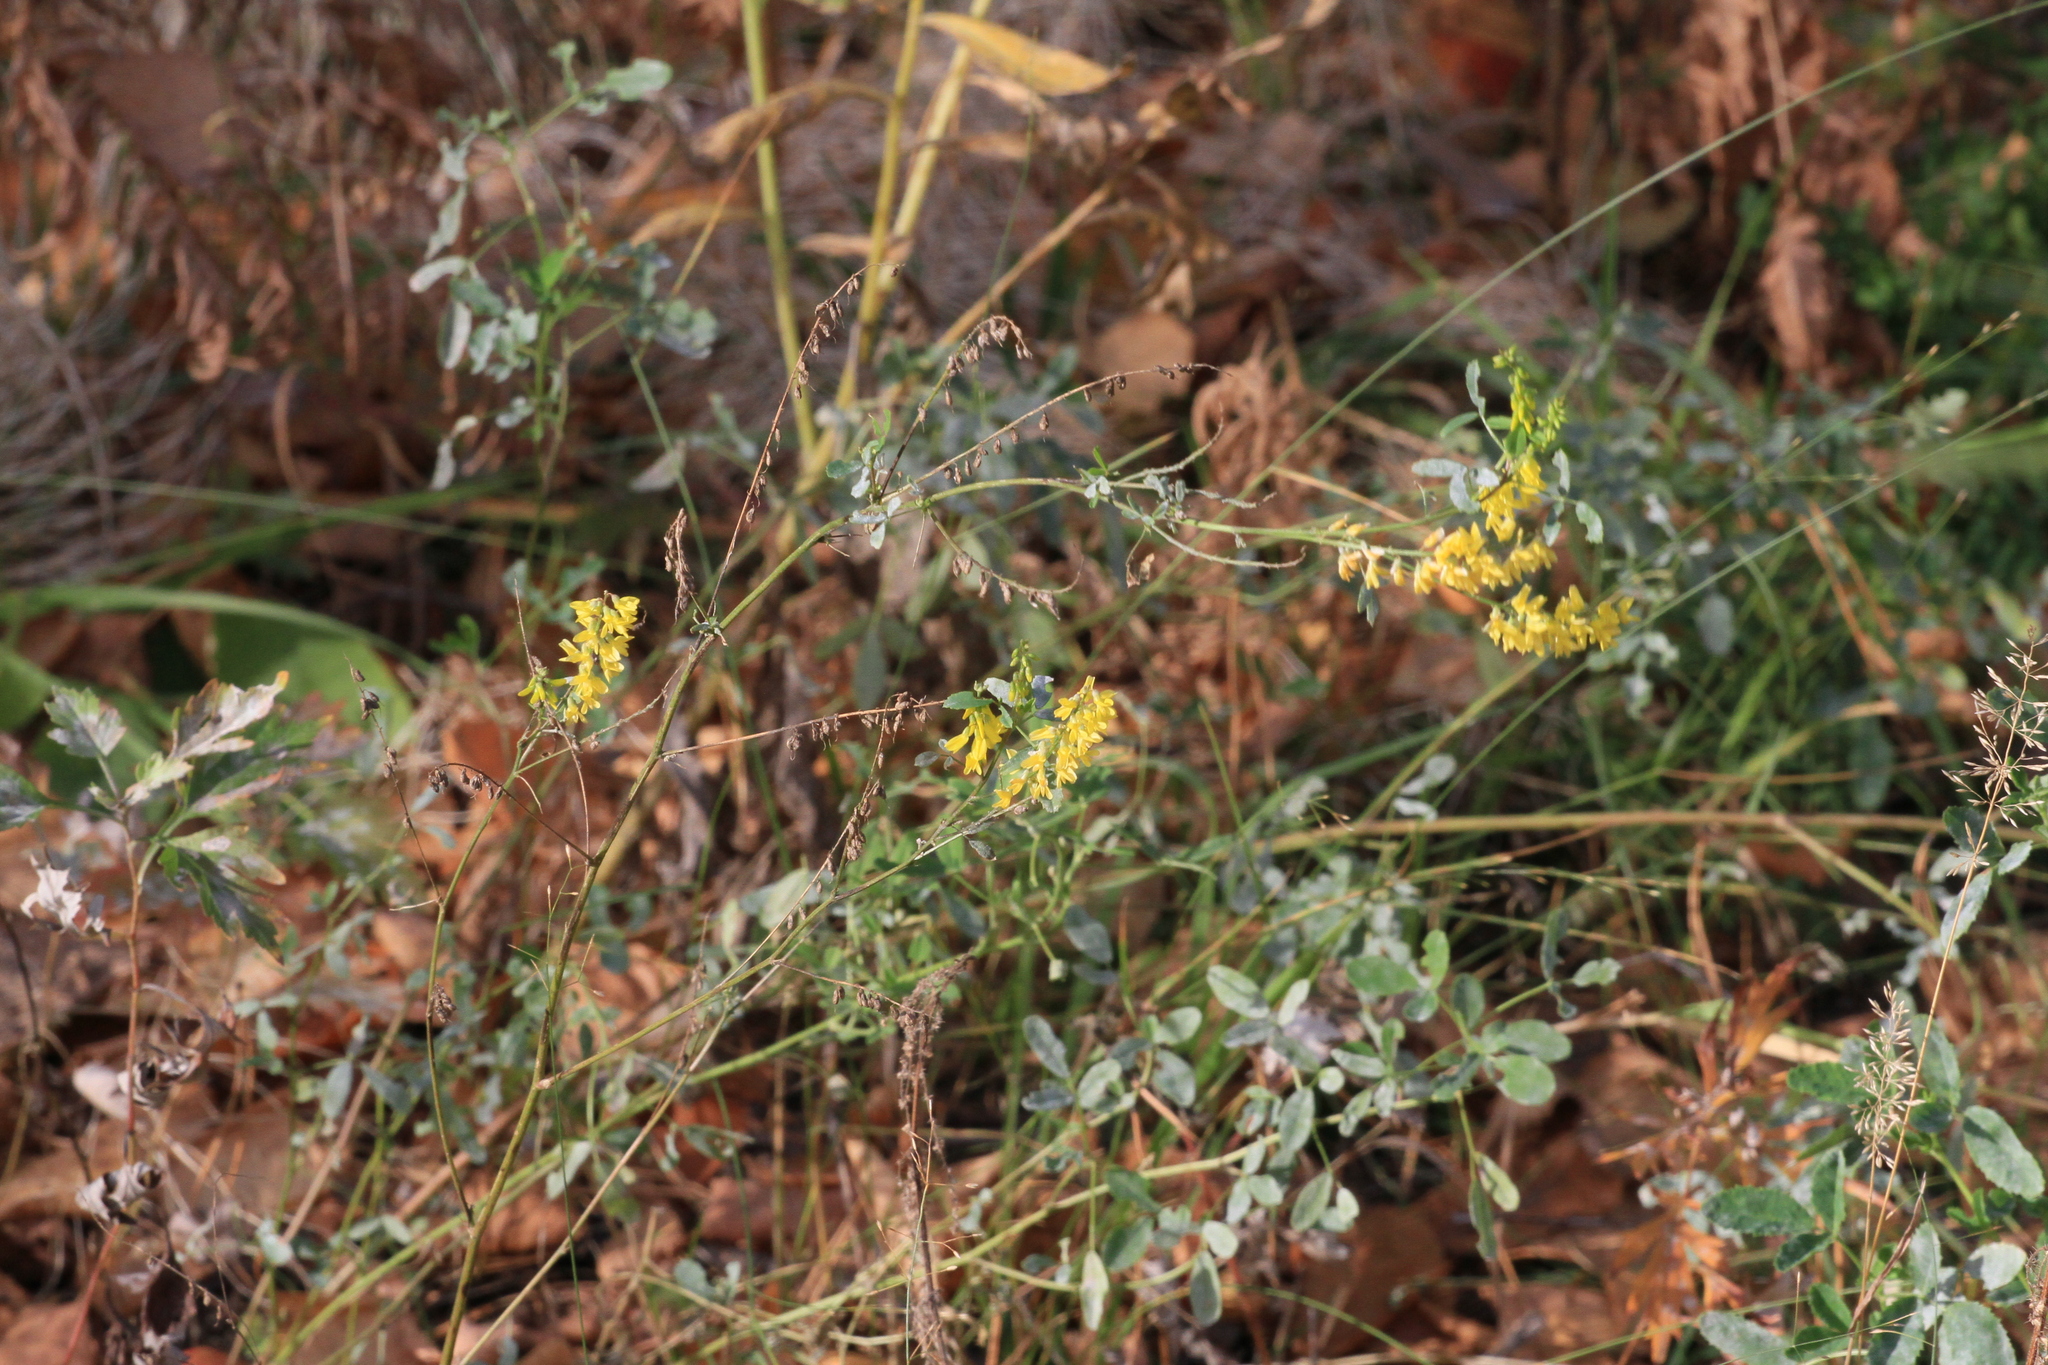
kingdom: Plantae
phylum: Tracheophyta
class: Magnoliopsida
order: Fabales
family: Fabaceae
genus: Melilotus
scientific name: Melilotus officinalis
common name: Sweetclover
